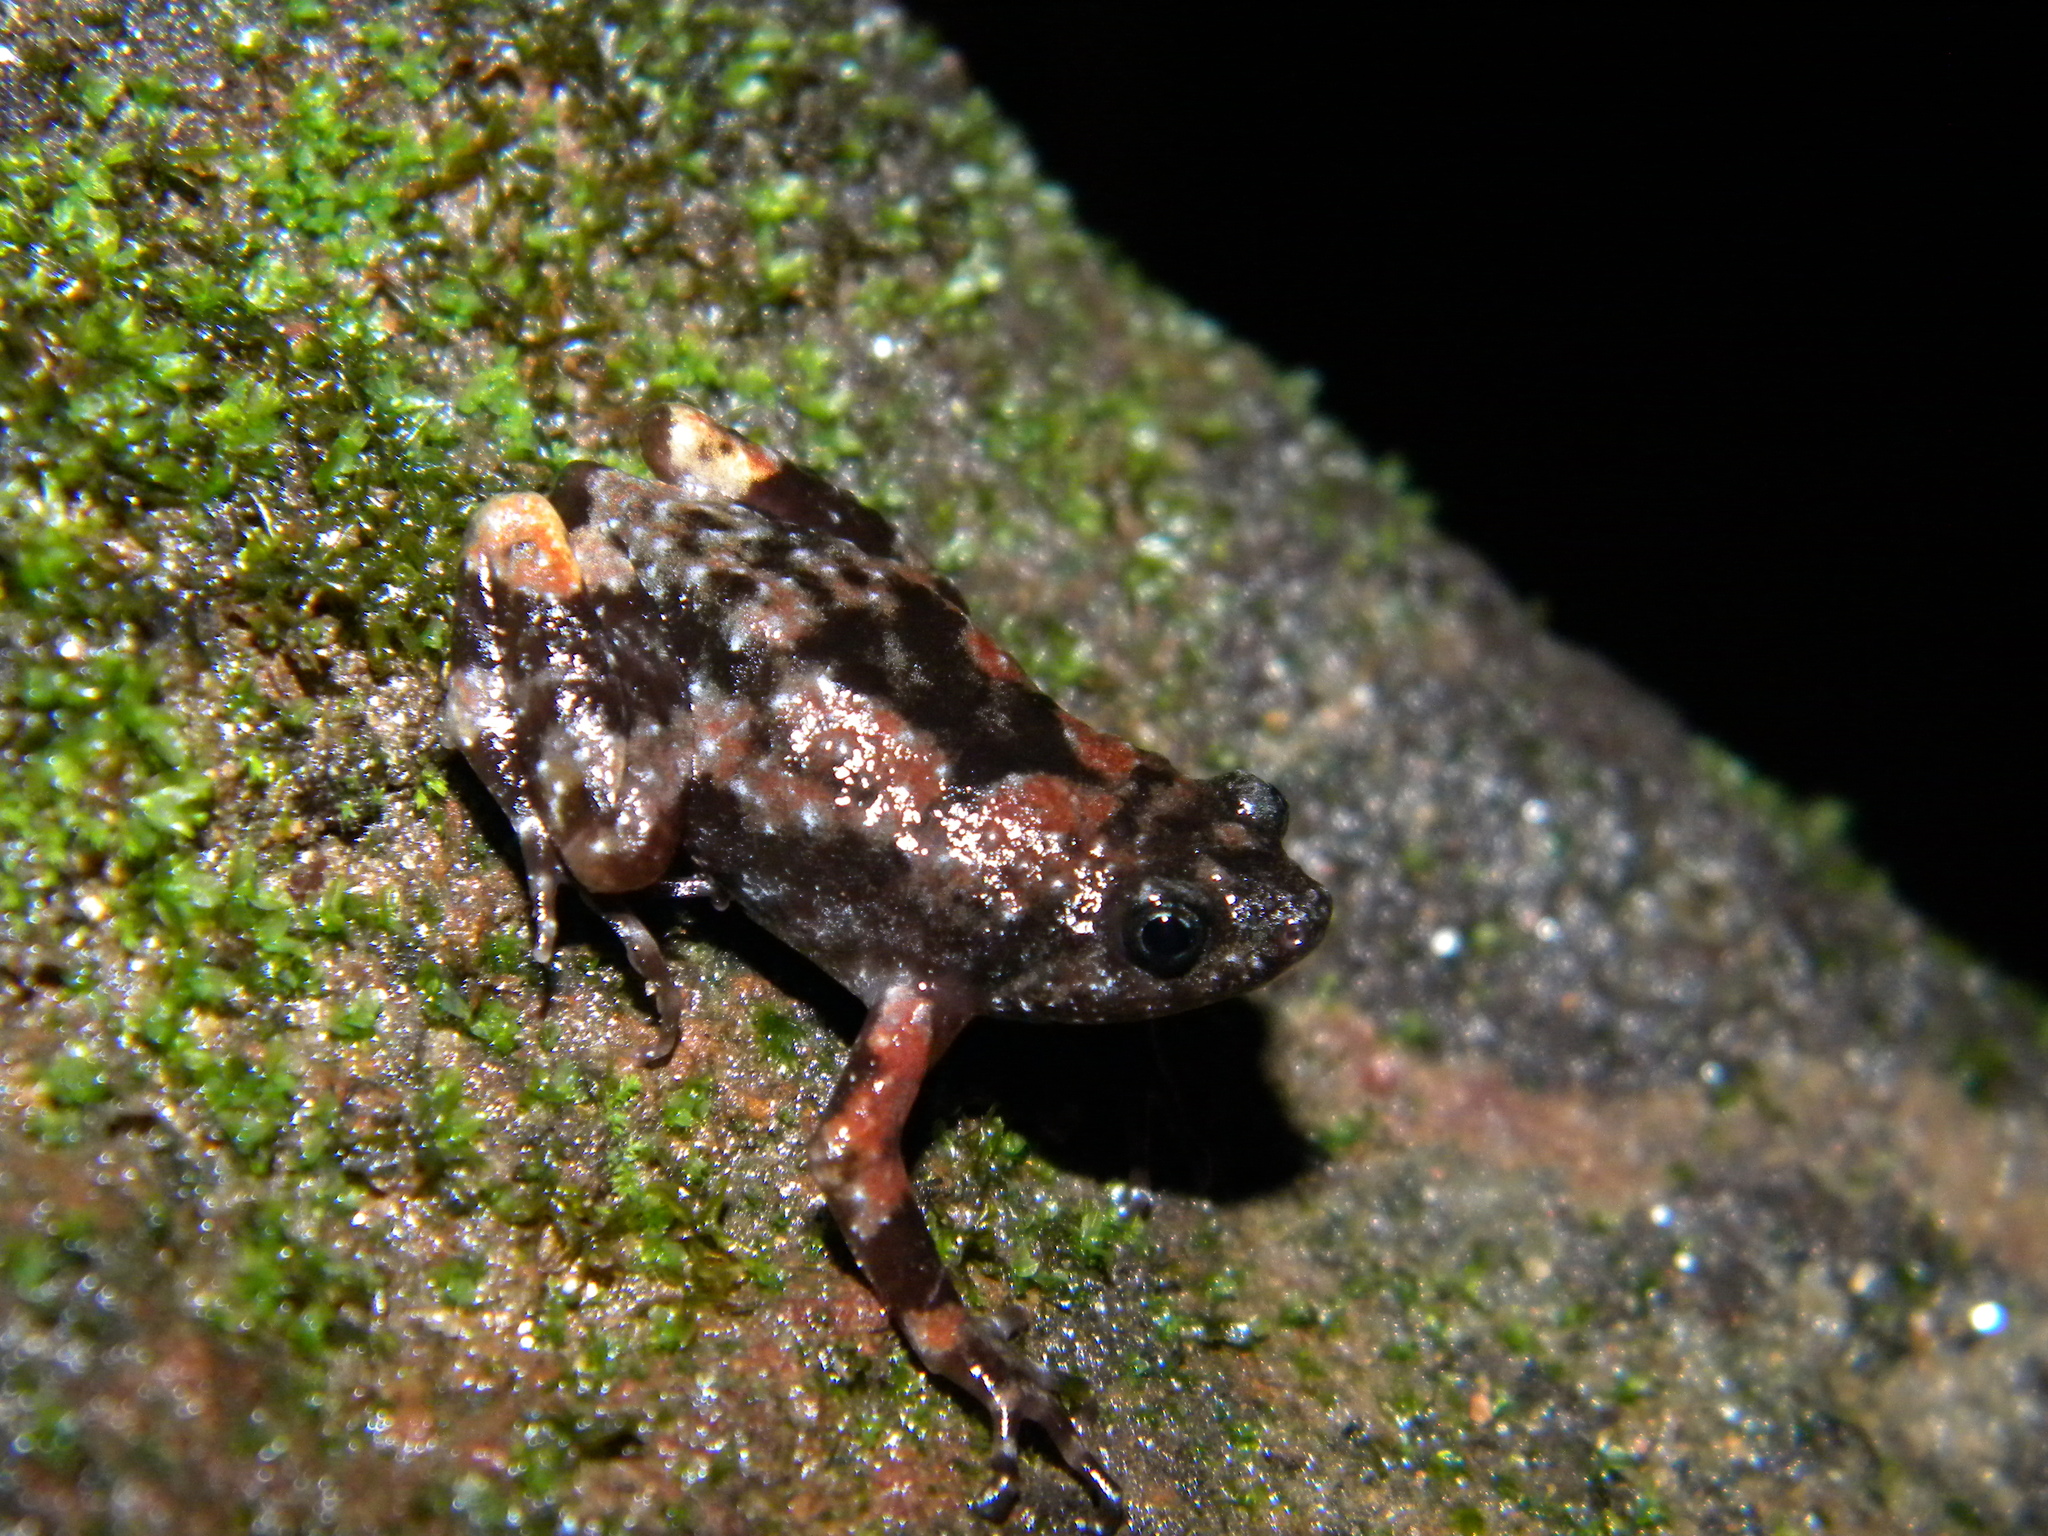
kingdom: Animalia
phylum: Chordata
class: Amphibia
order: Anura
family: Microhylidae
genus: Uperodon
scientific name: Uperodon montanus
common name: Jerdon's ramanella
